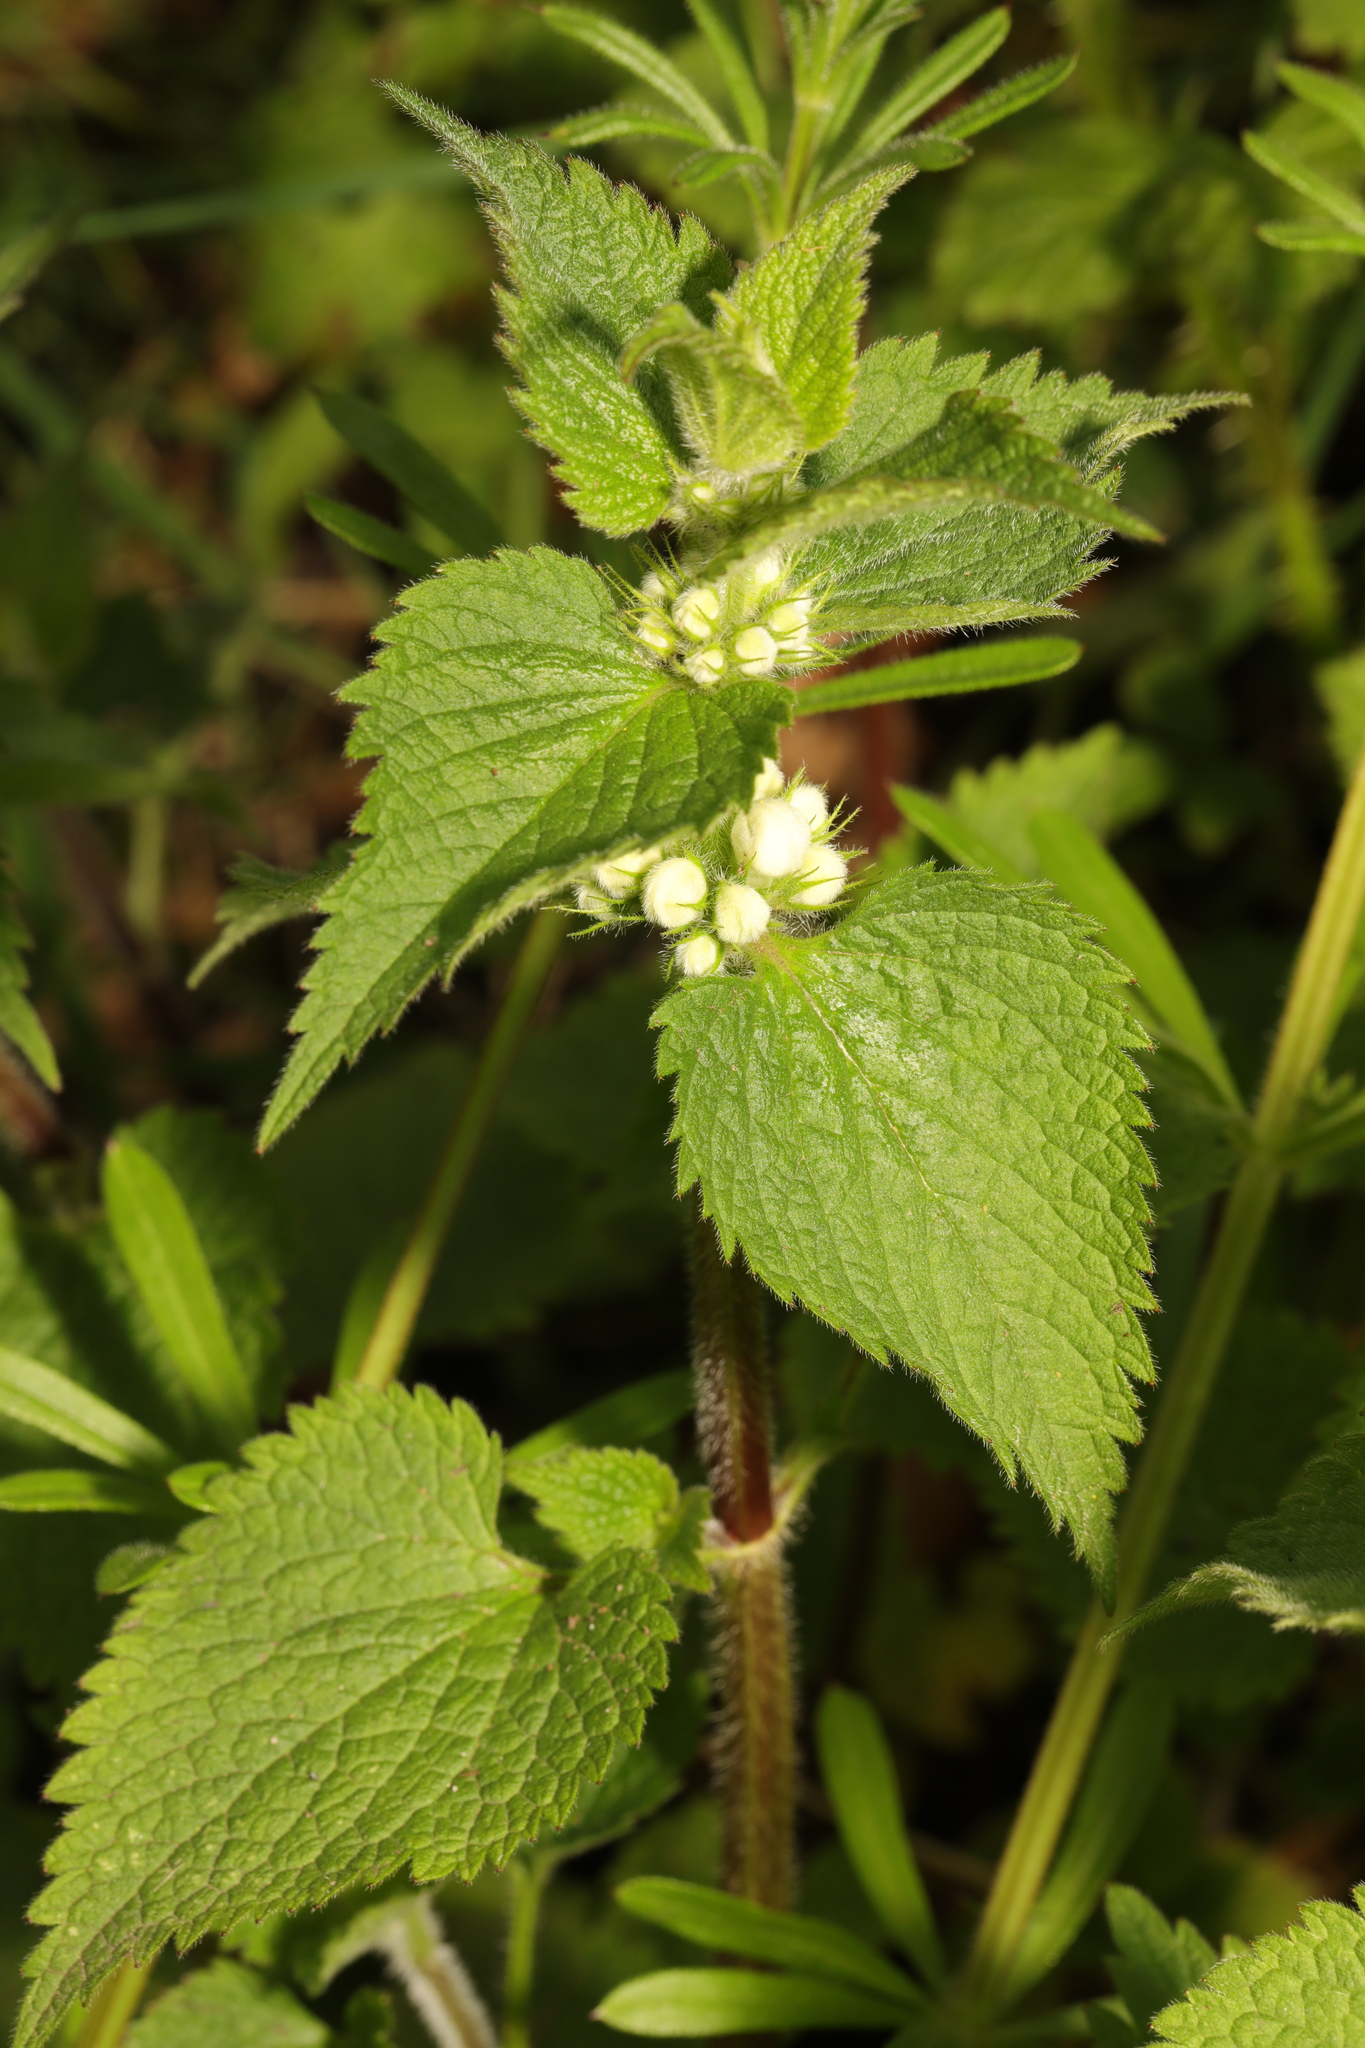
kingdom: Plantae
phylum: Tracheophyta
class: Magnoliopsida
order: Lamiales
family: Lamiaceae
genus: Lamium
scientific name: Lamium album
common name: White dead-nettle
